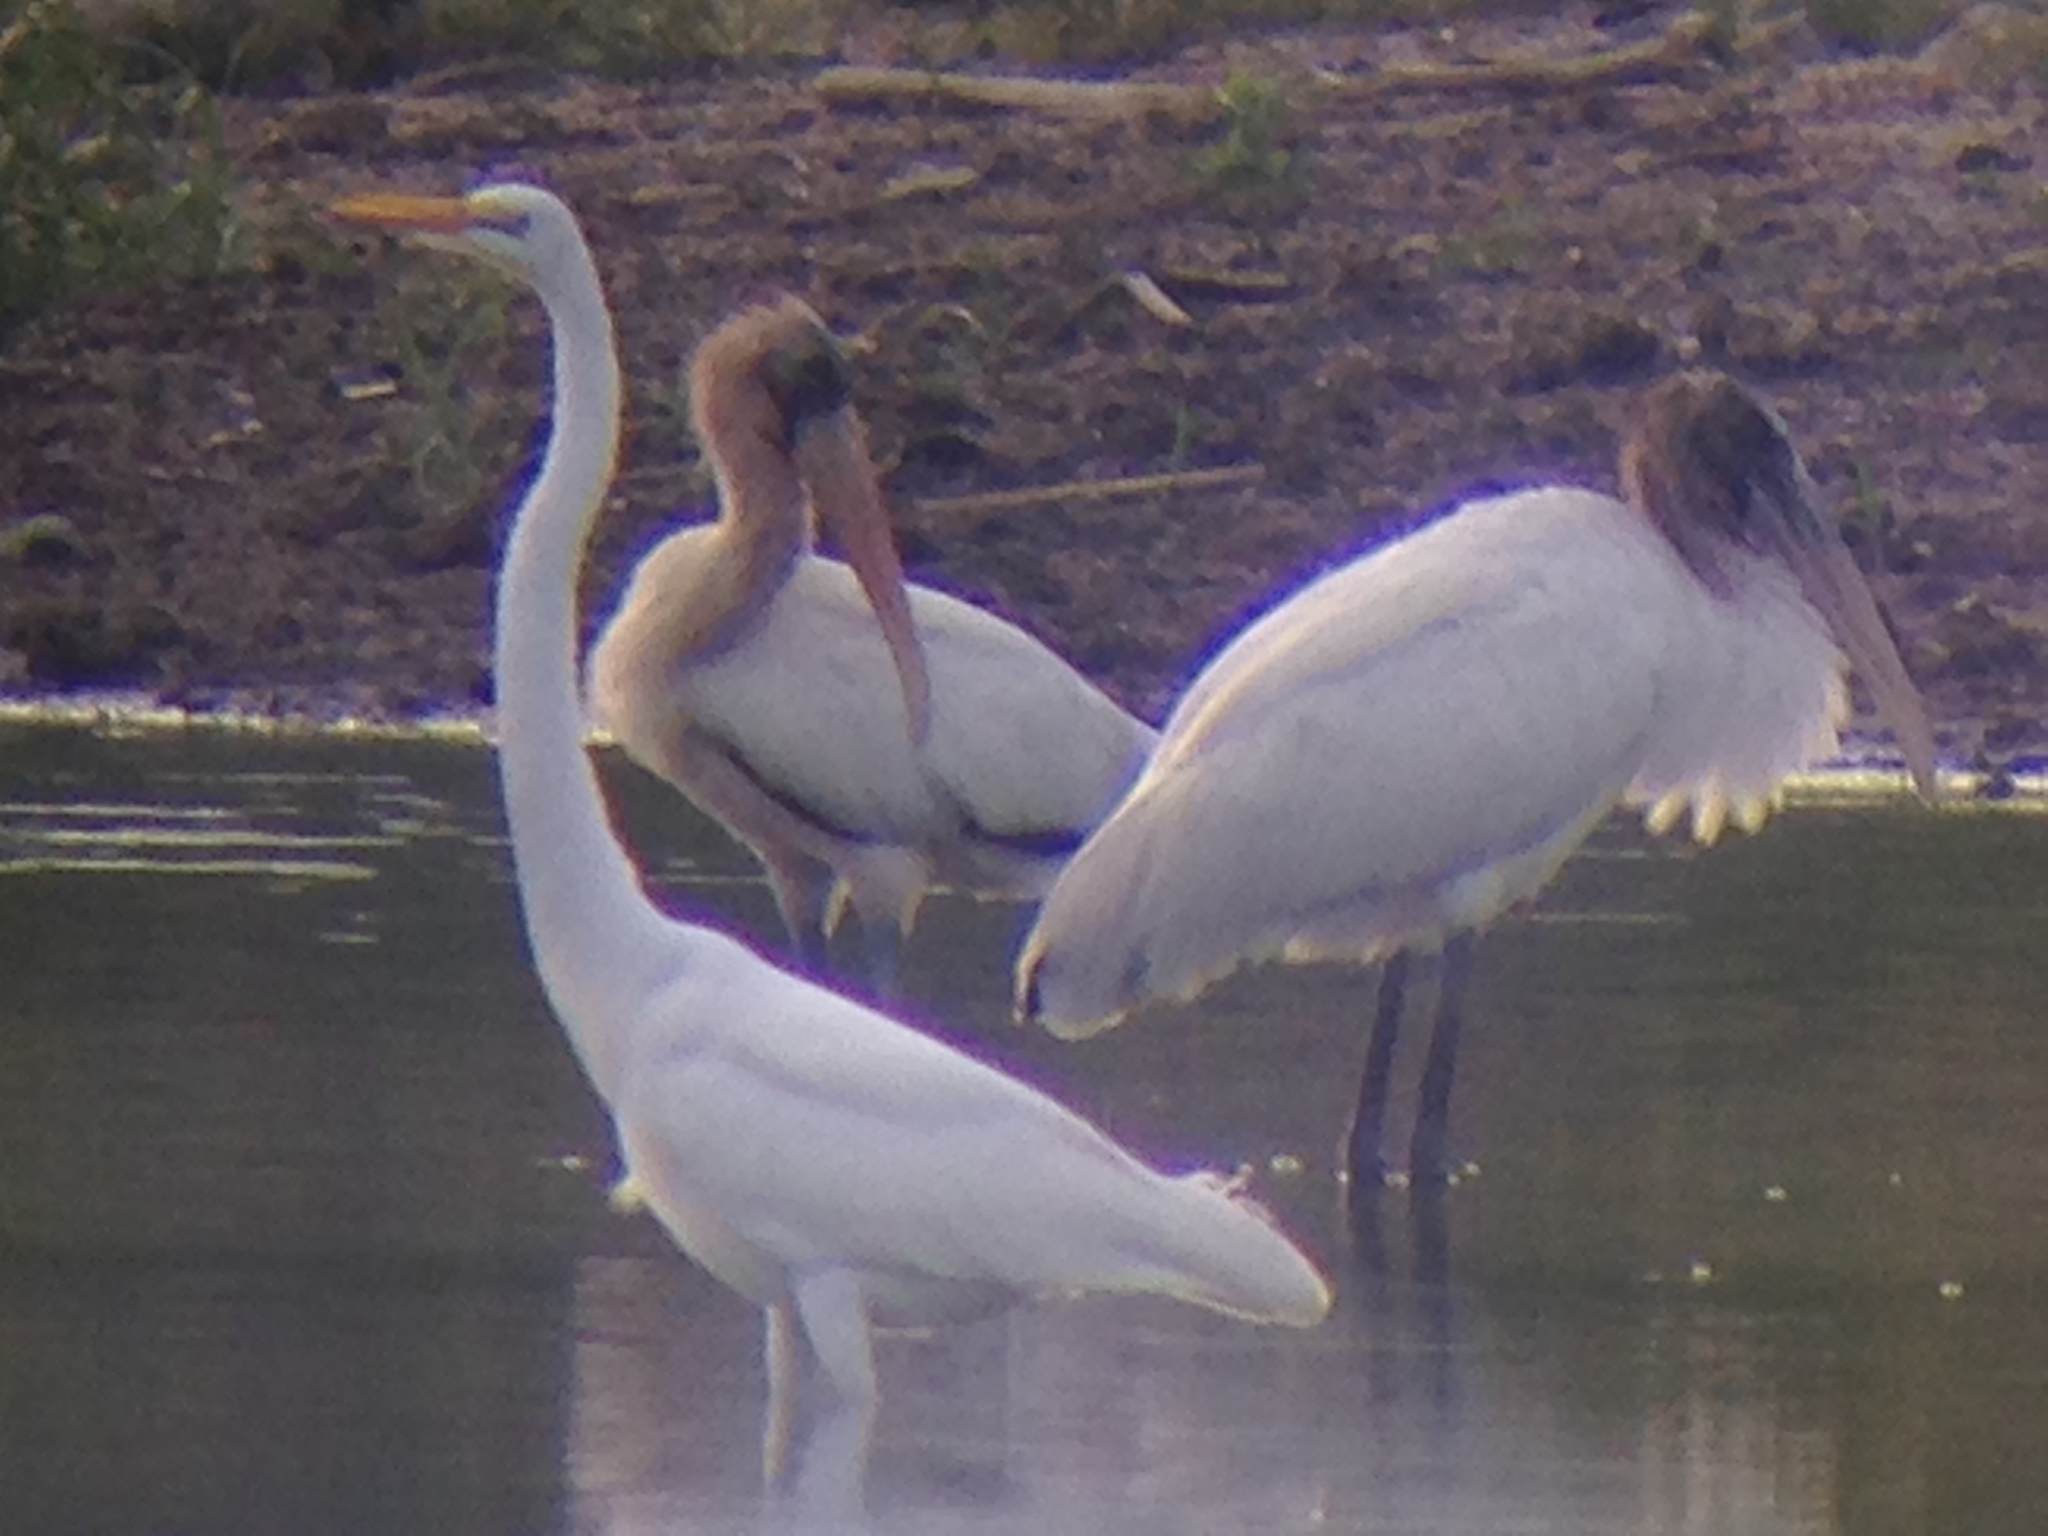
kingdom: Animalia
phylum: Chordata
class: Aves
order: Pelecaniformes
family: Ardeidae
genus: Ardea
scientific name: Ardea alba
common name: Great egret
